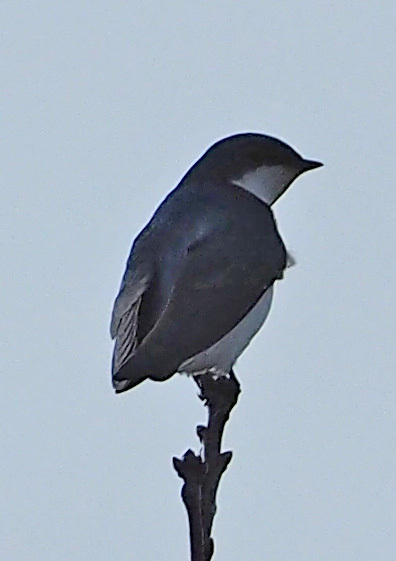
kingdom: Animalia
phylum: Chordata
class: Aves
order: Passeriformes
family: Hirundinidae
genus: Tachycineta
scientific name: Tachycineta bicolor
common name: Tree swallow
